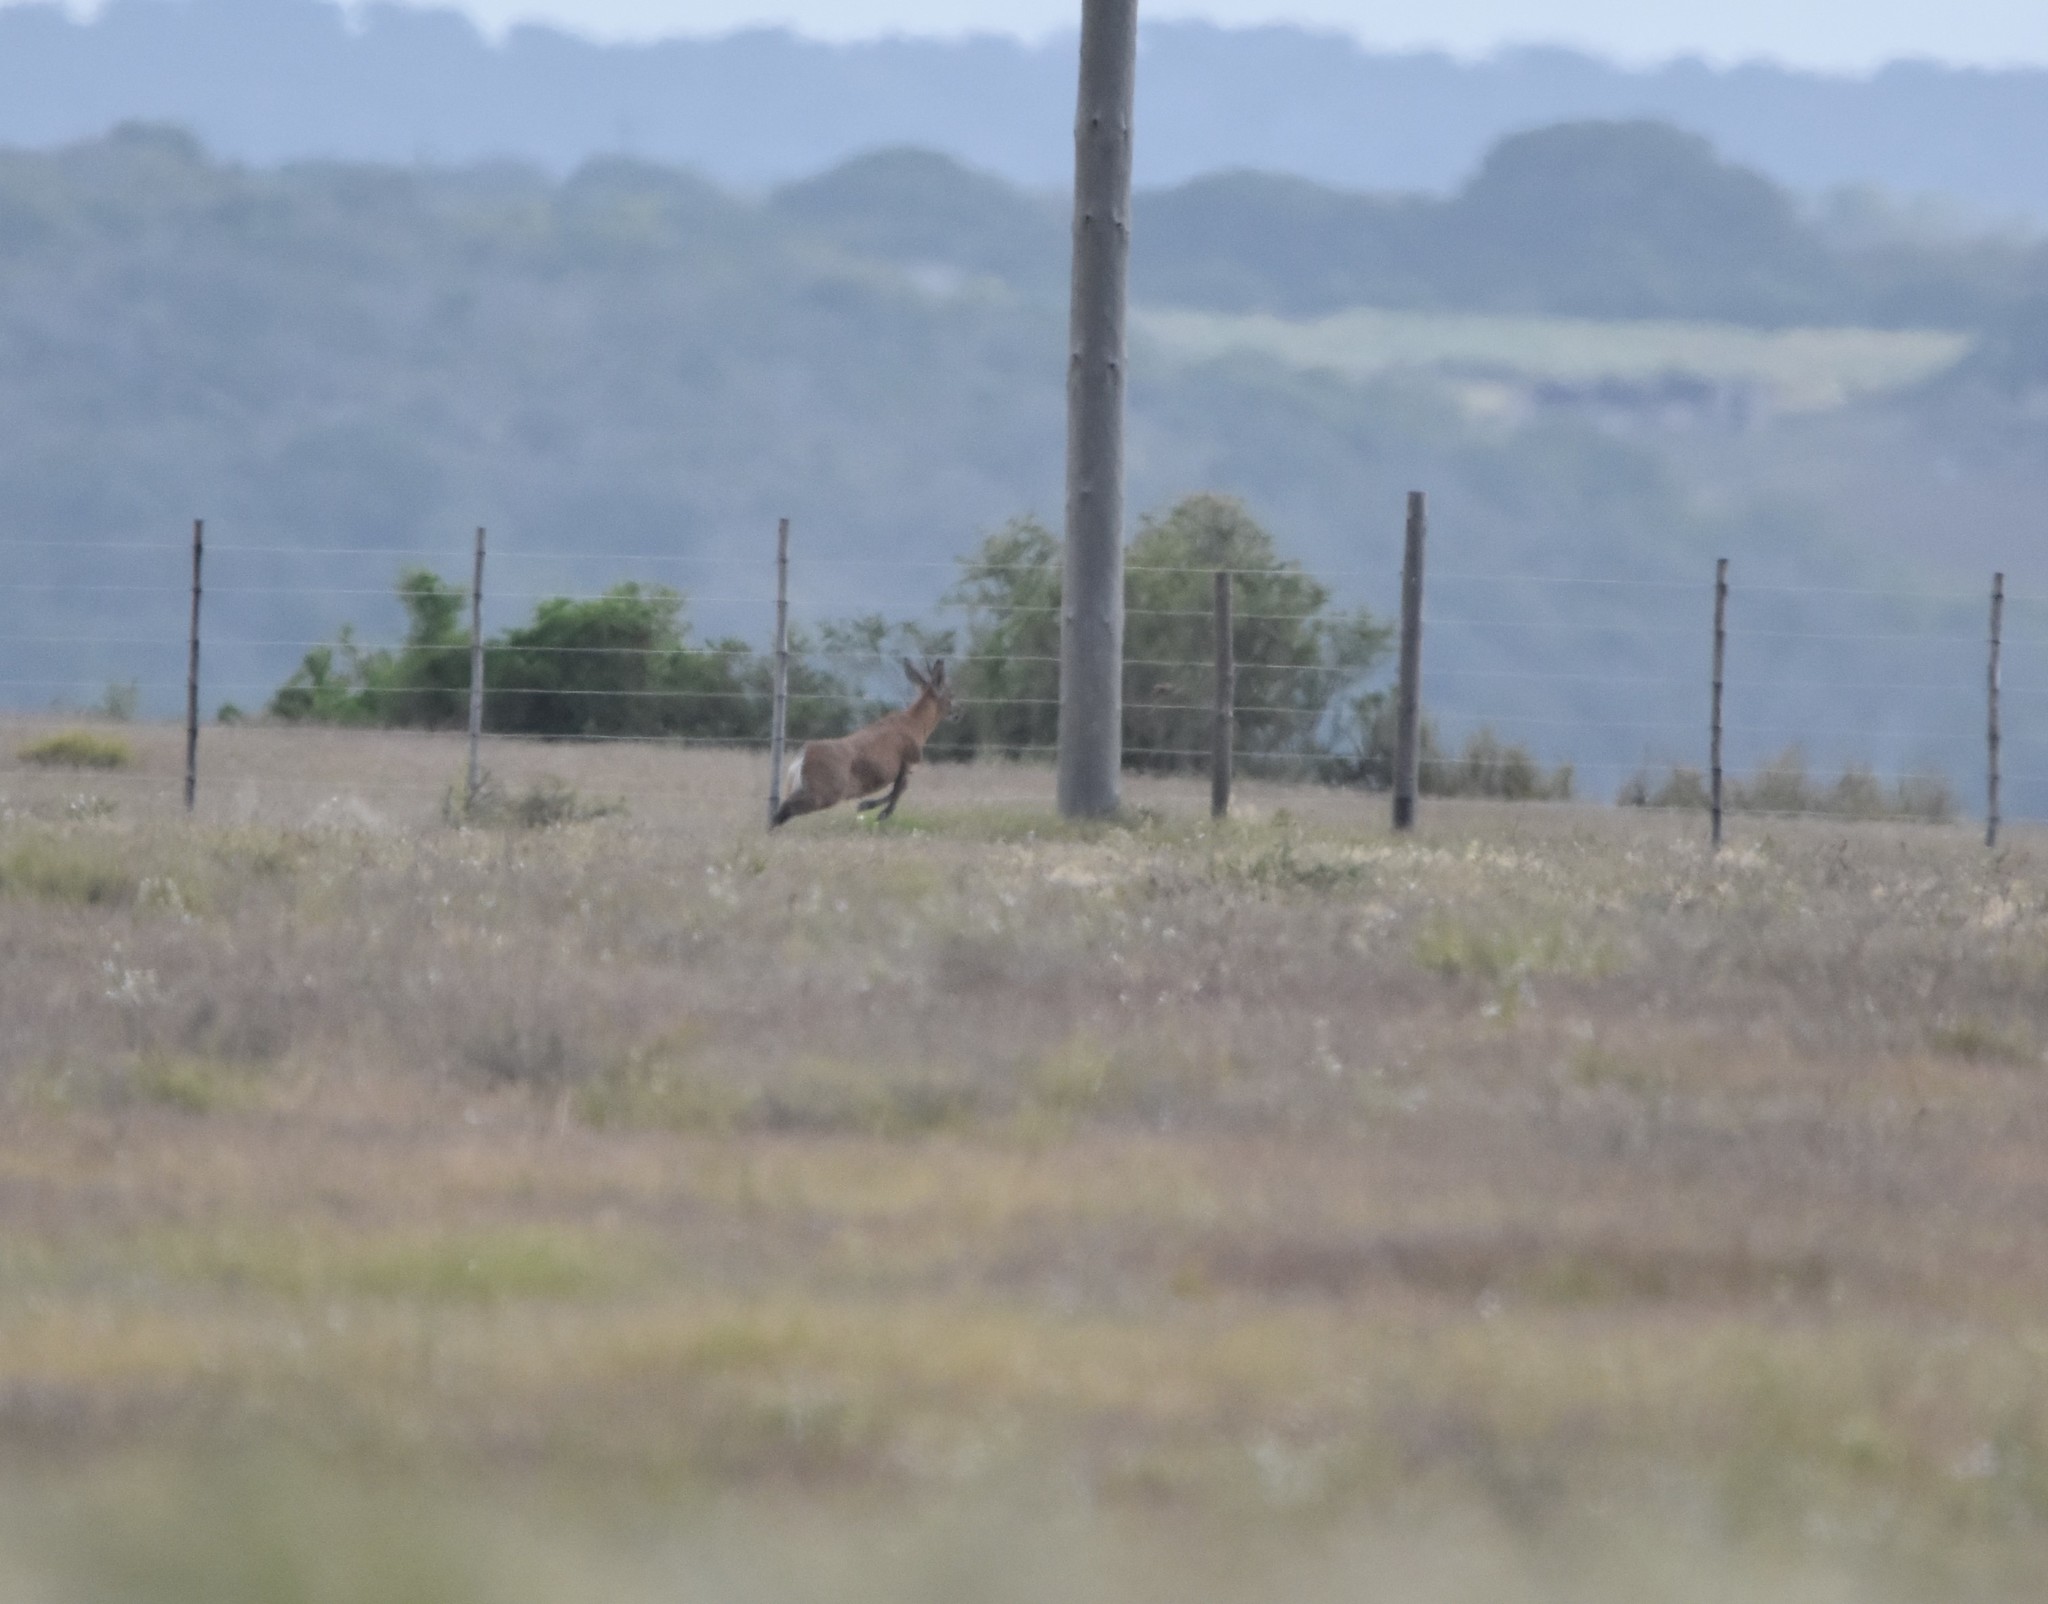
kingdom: Animalia
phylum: Chordata
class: Mammalia
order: Artiodactyla
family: Bovidae
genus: Sylvicapra
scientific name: Sylvicapra grimmia
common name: Bush duiker
